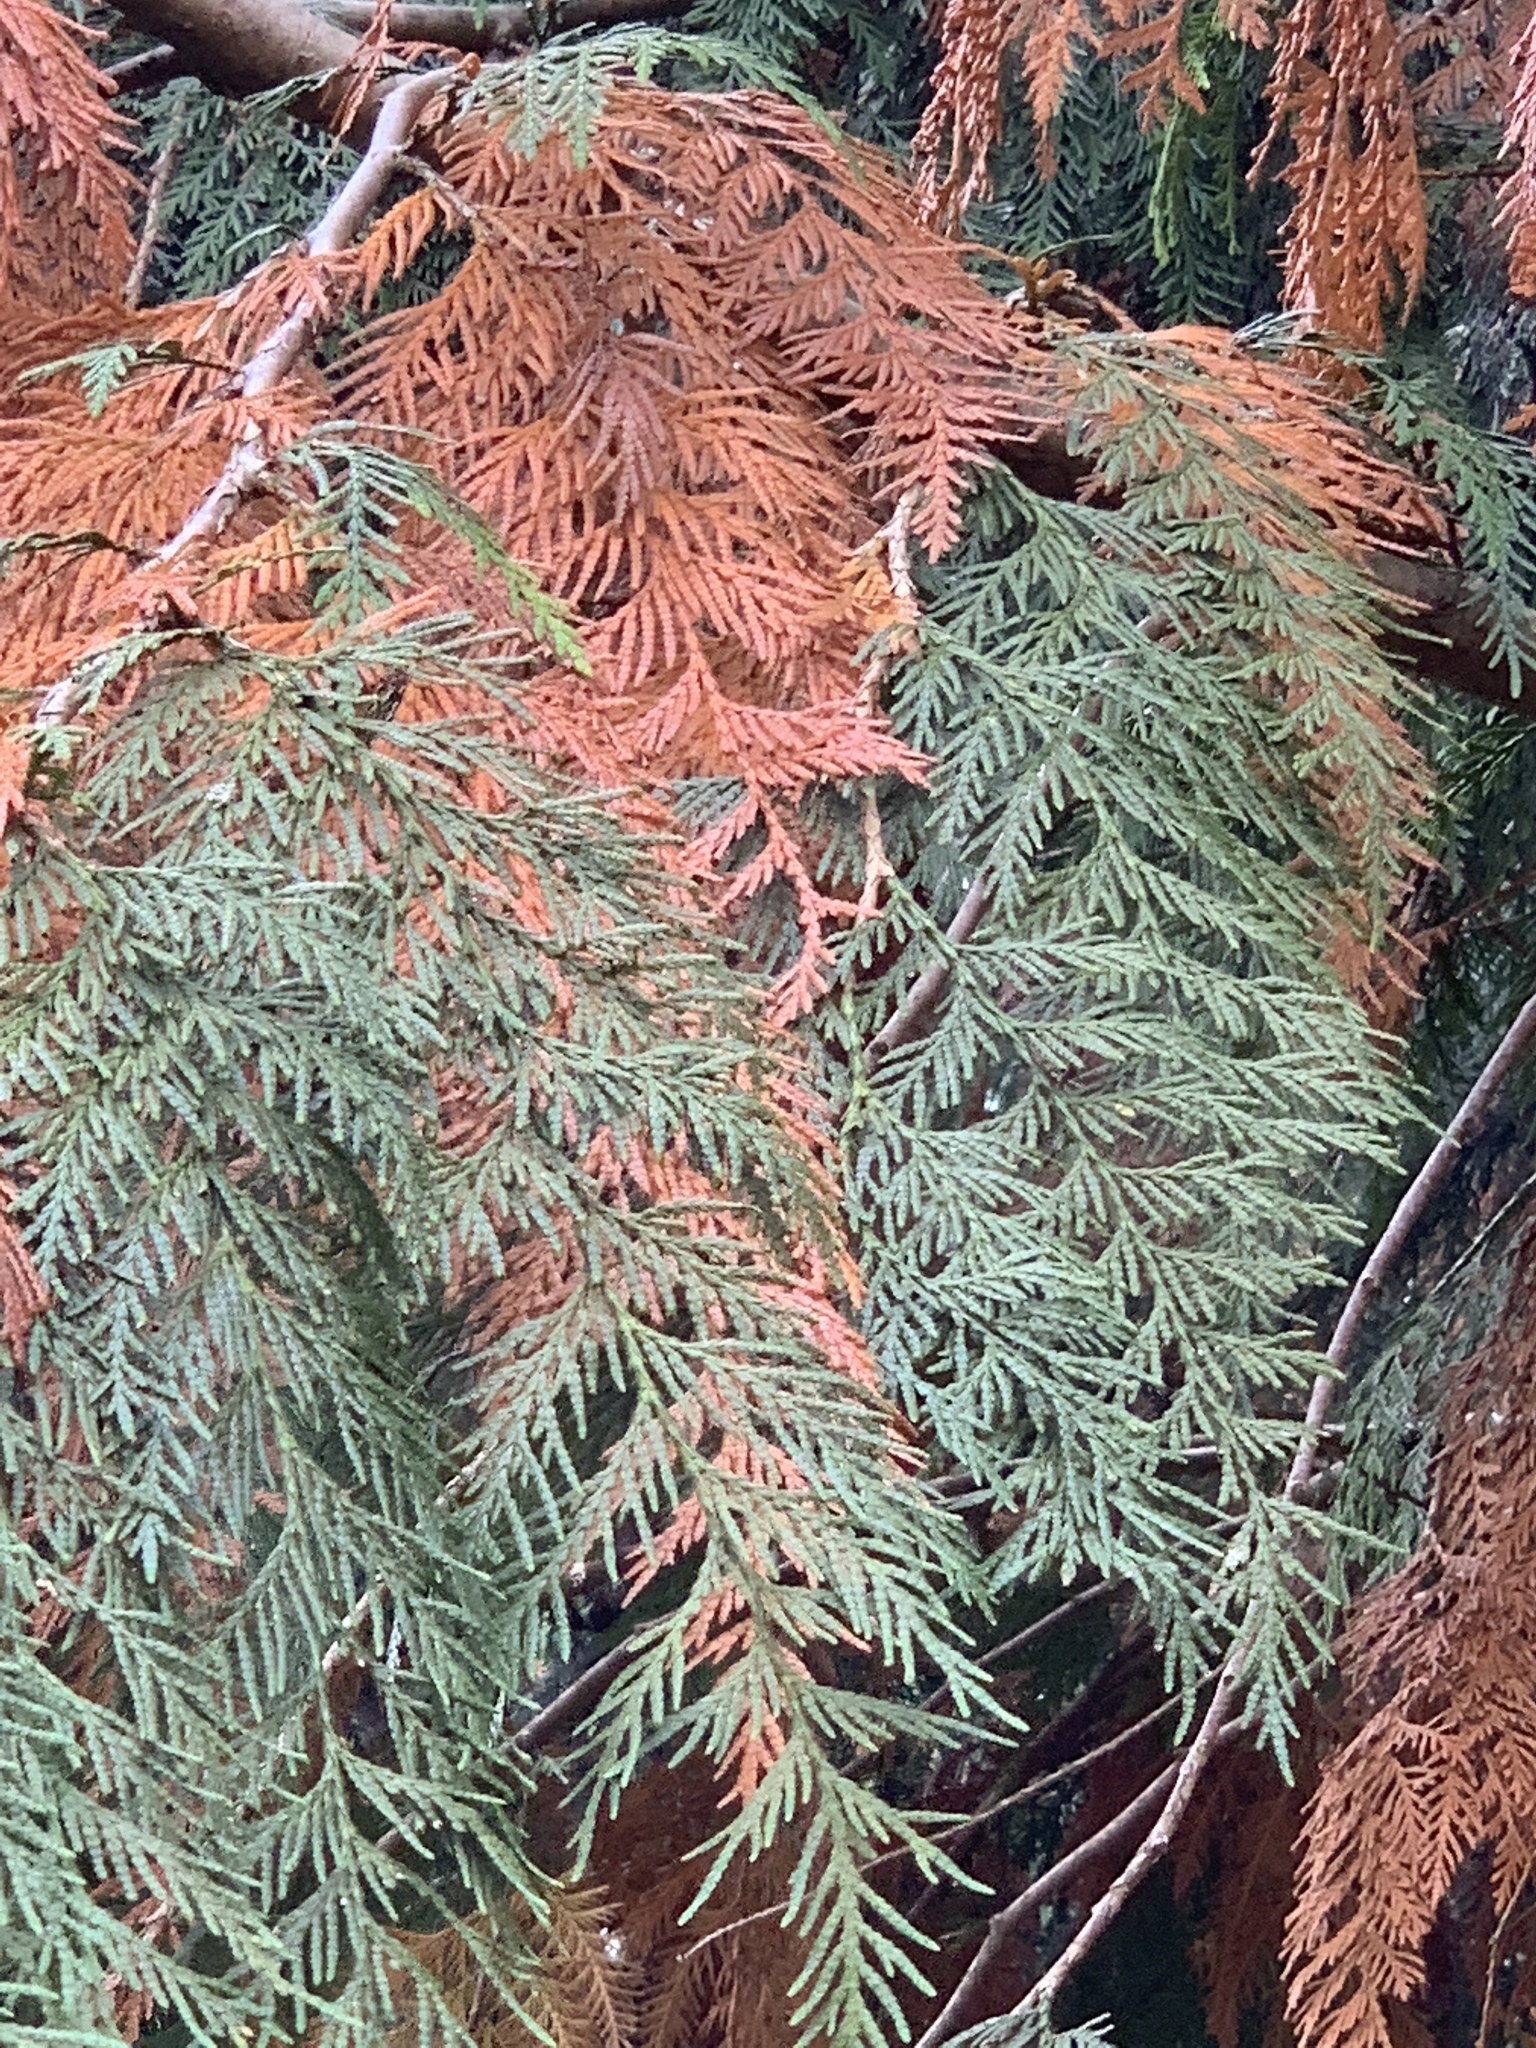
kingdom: Plantae
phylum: Tracheophyta
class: Pinopsida
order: Pinales
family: Cupressaceae
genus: Thuja
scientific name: Thuja plicata
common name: Western red-cedar
